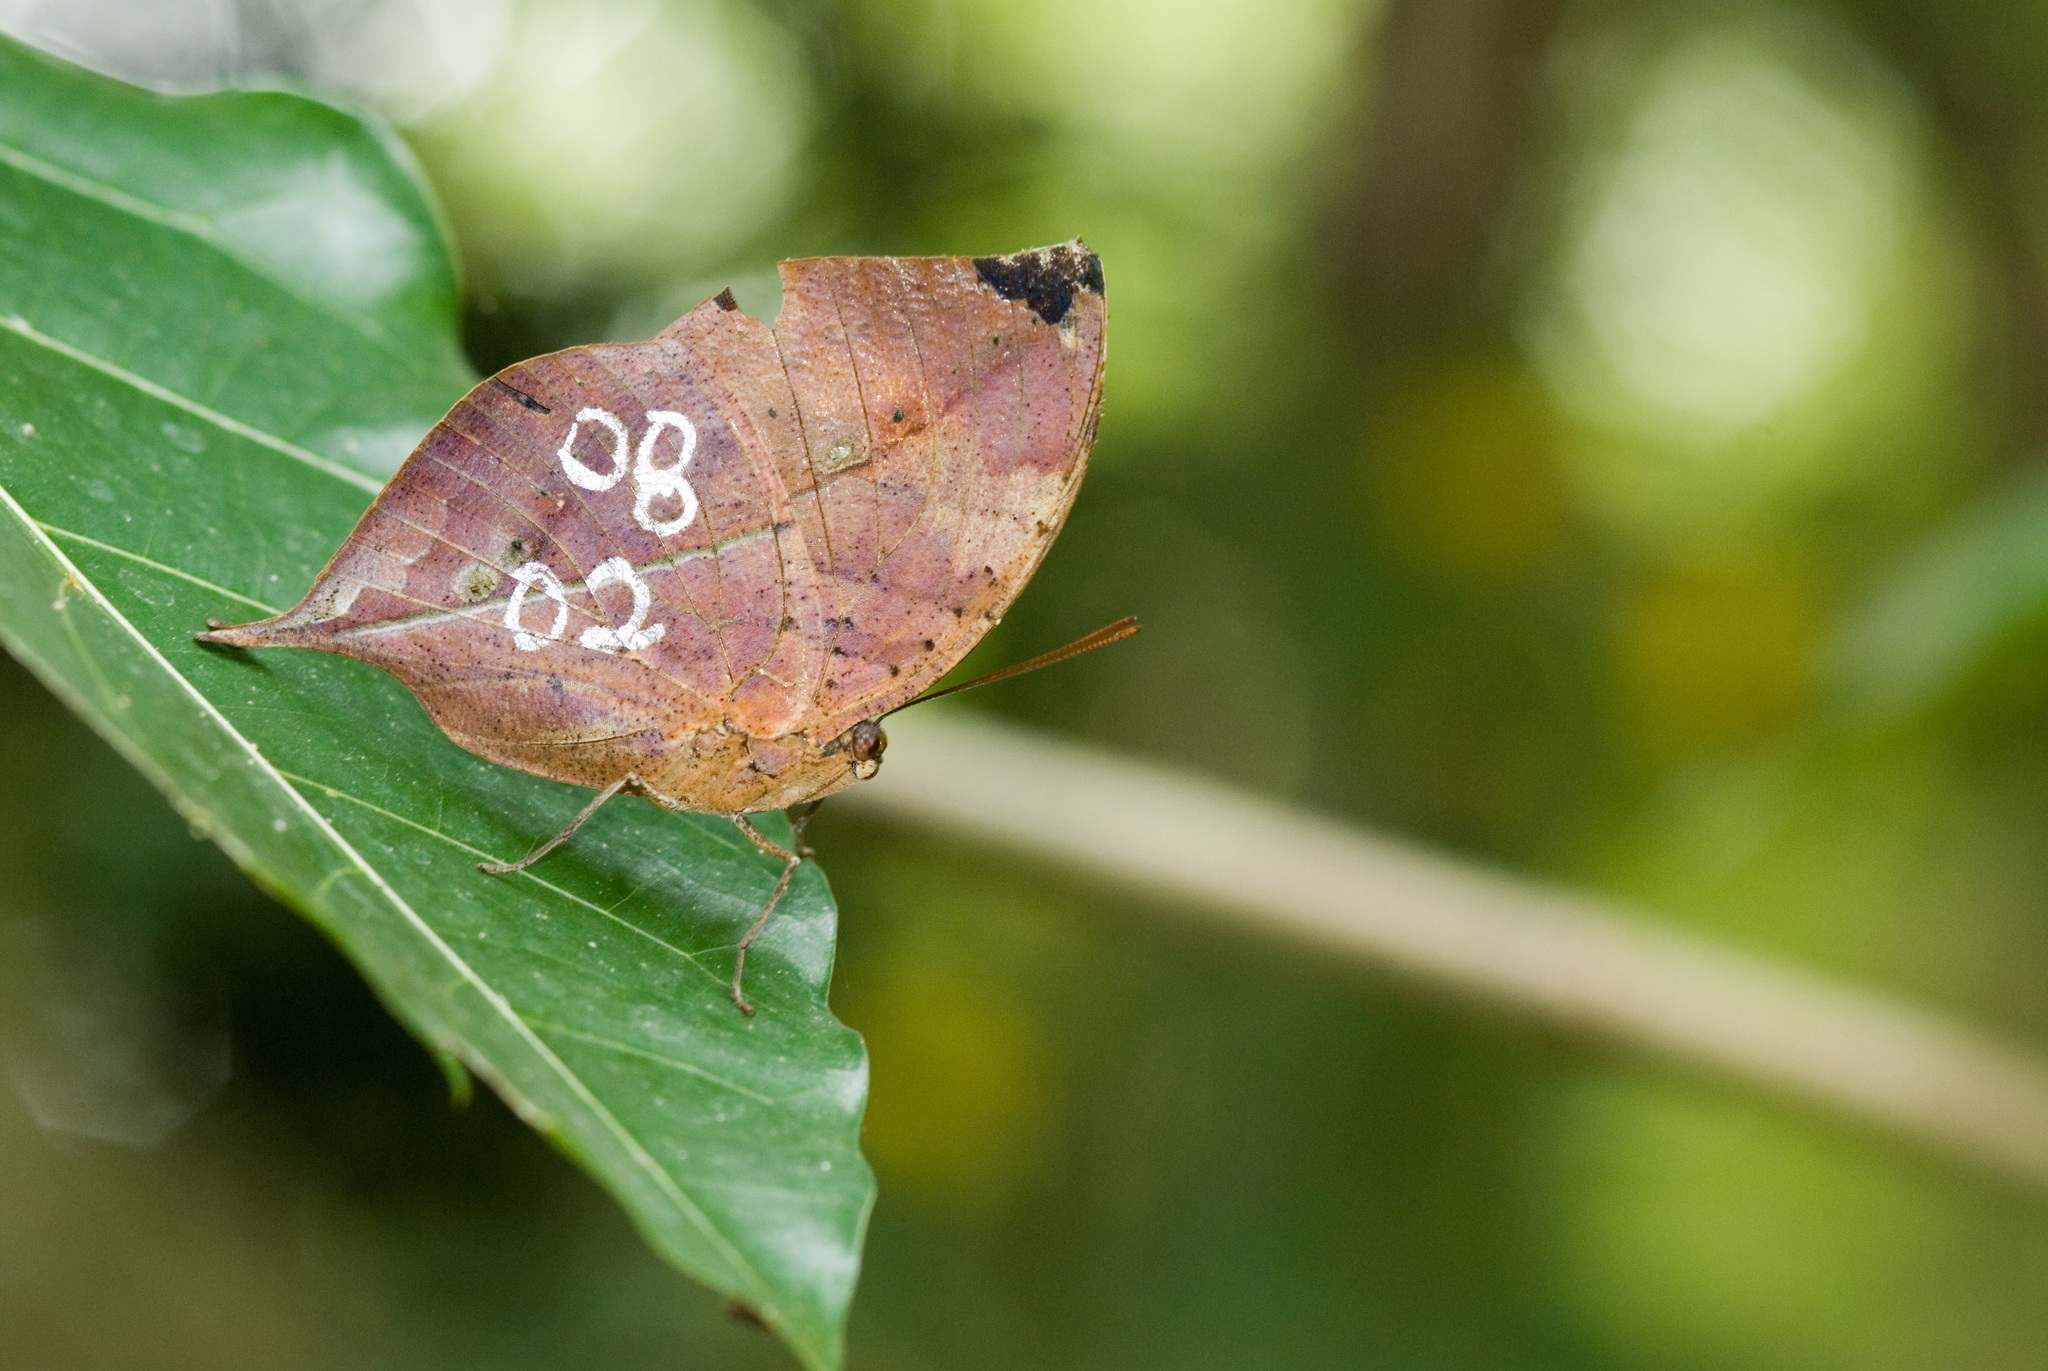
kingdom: Animalia
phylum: Arthropoda
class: Insecta
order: Lepidoptera
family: Nymphalidae
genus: Kallima
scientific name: Kallima inachus
